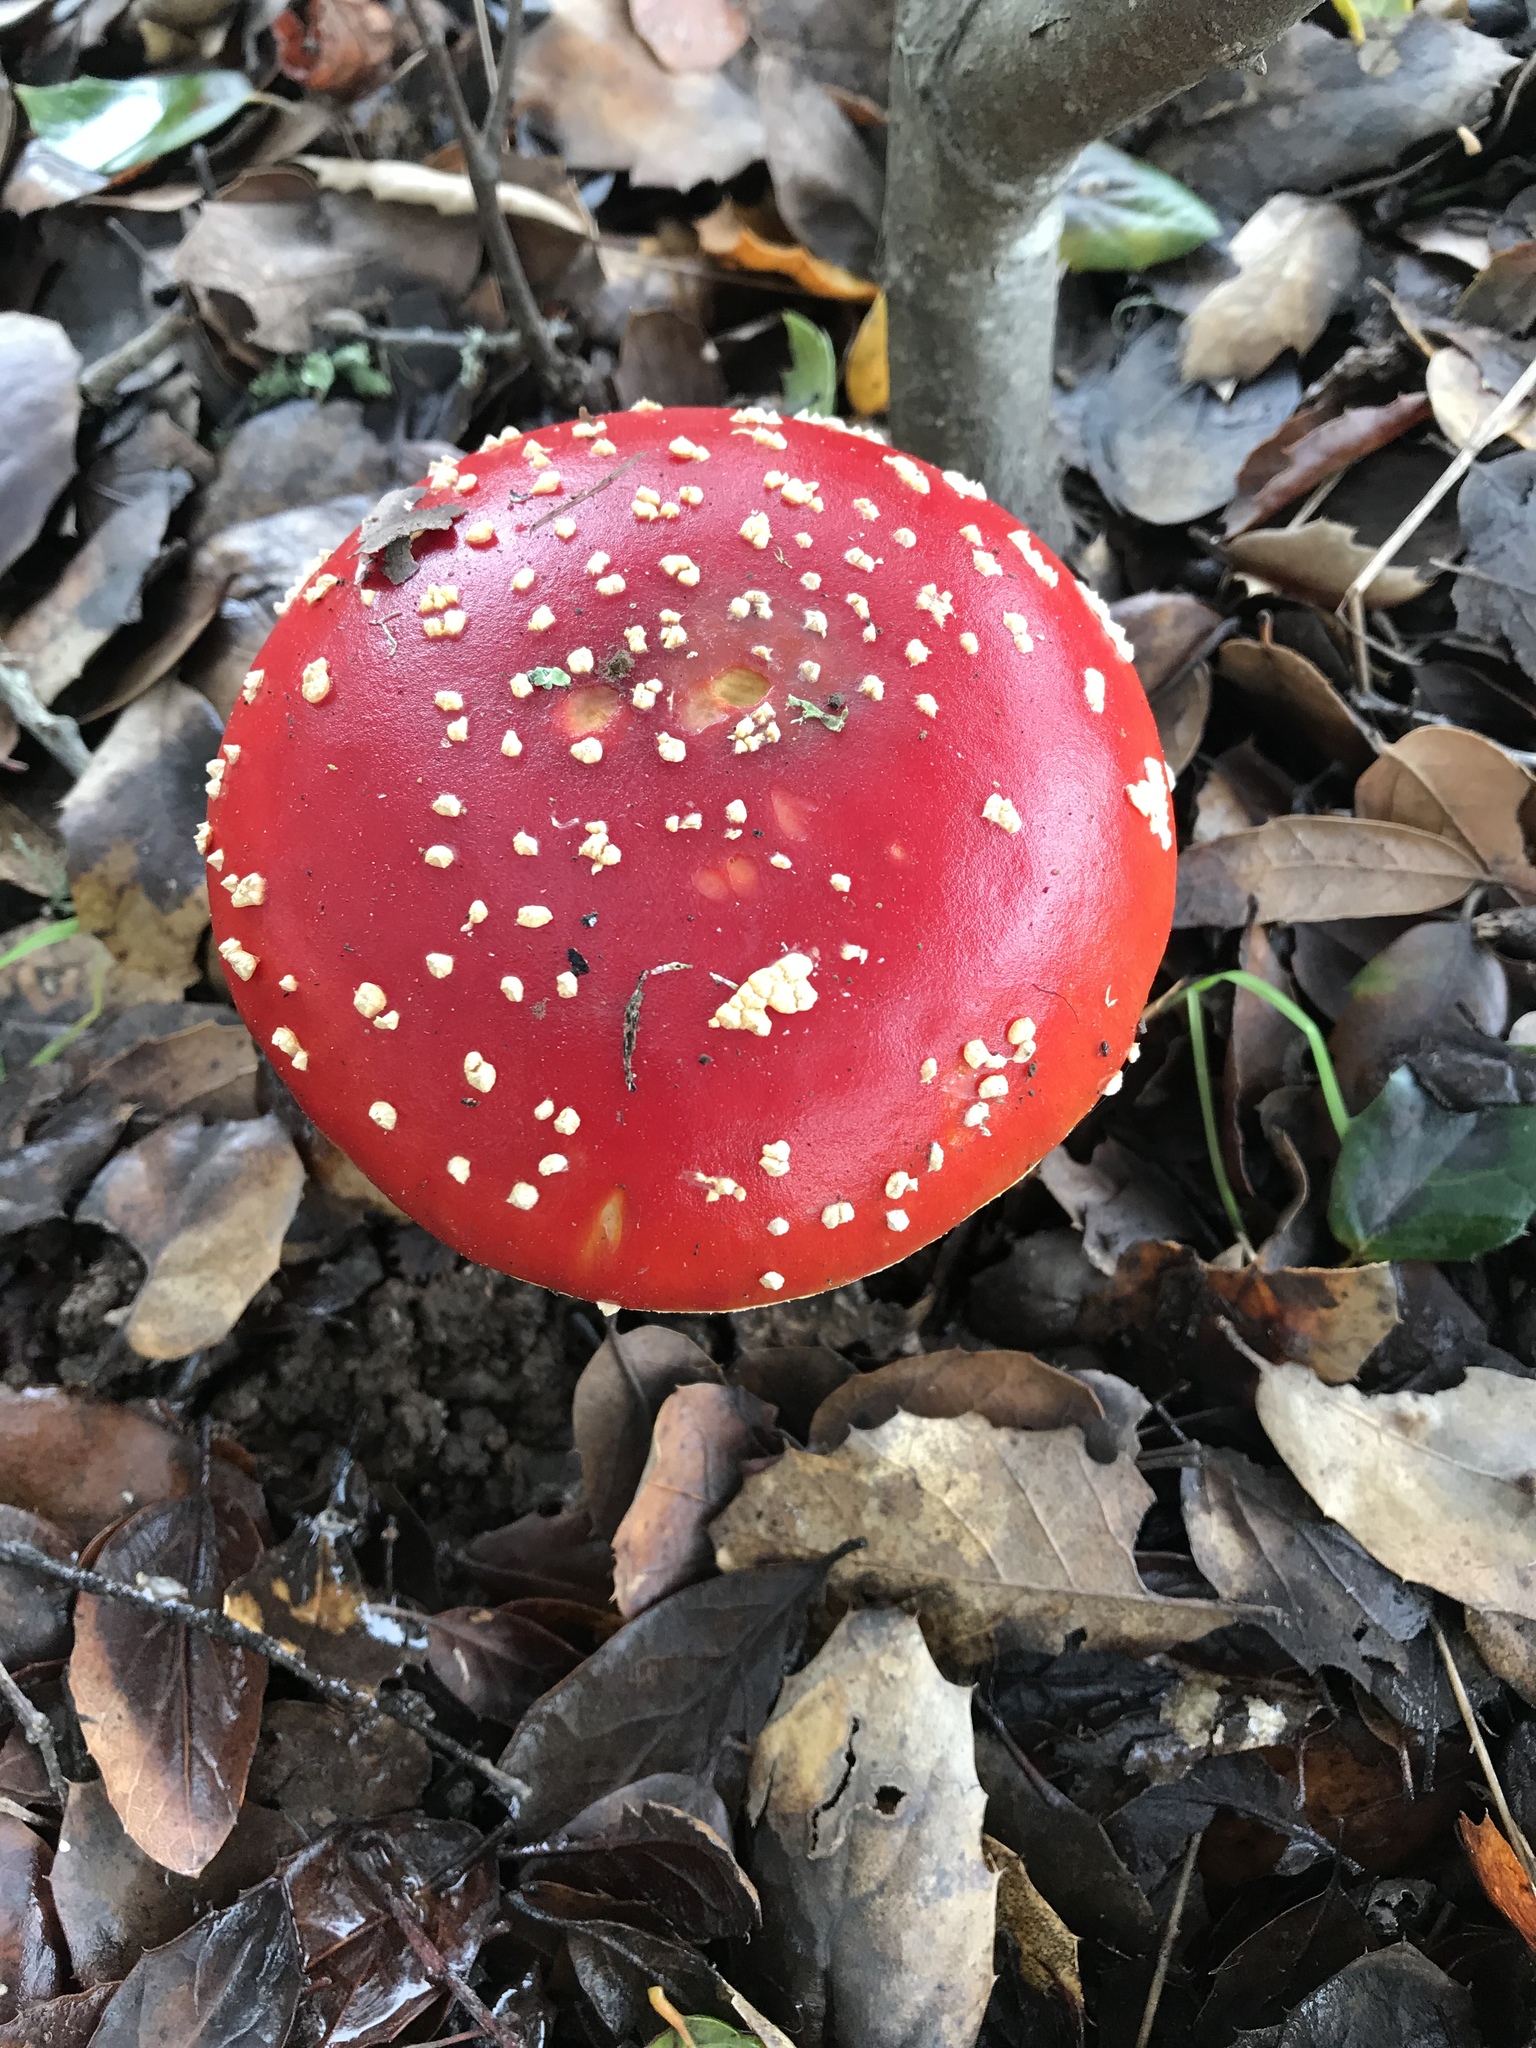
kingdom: Fungi
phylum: Basidiomycota
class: Agaricomycetes
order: Agaricales
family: Amanitaceae
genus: Amanita
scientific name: Amanita muscaria
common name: Fly agaric
